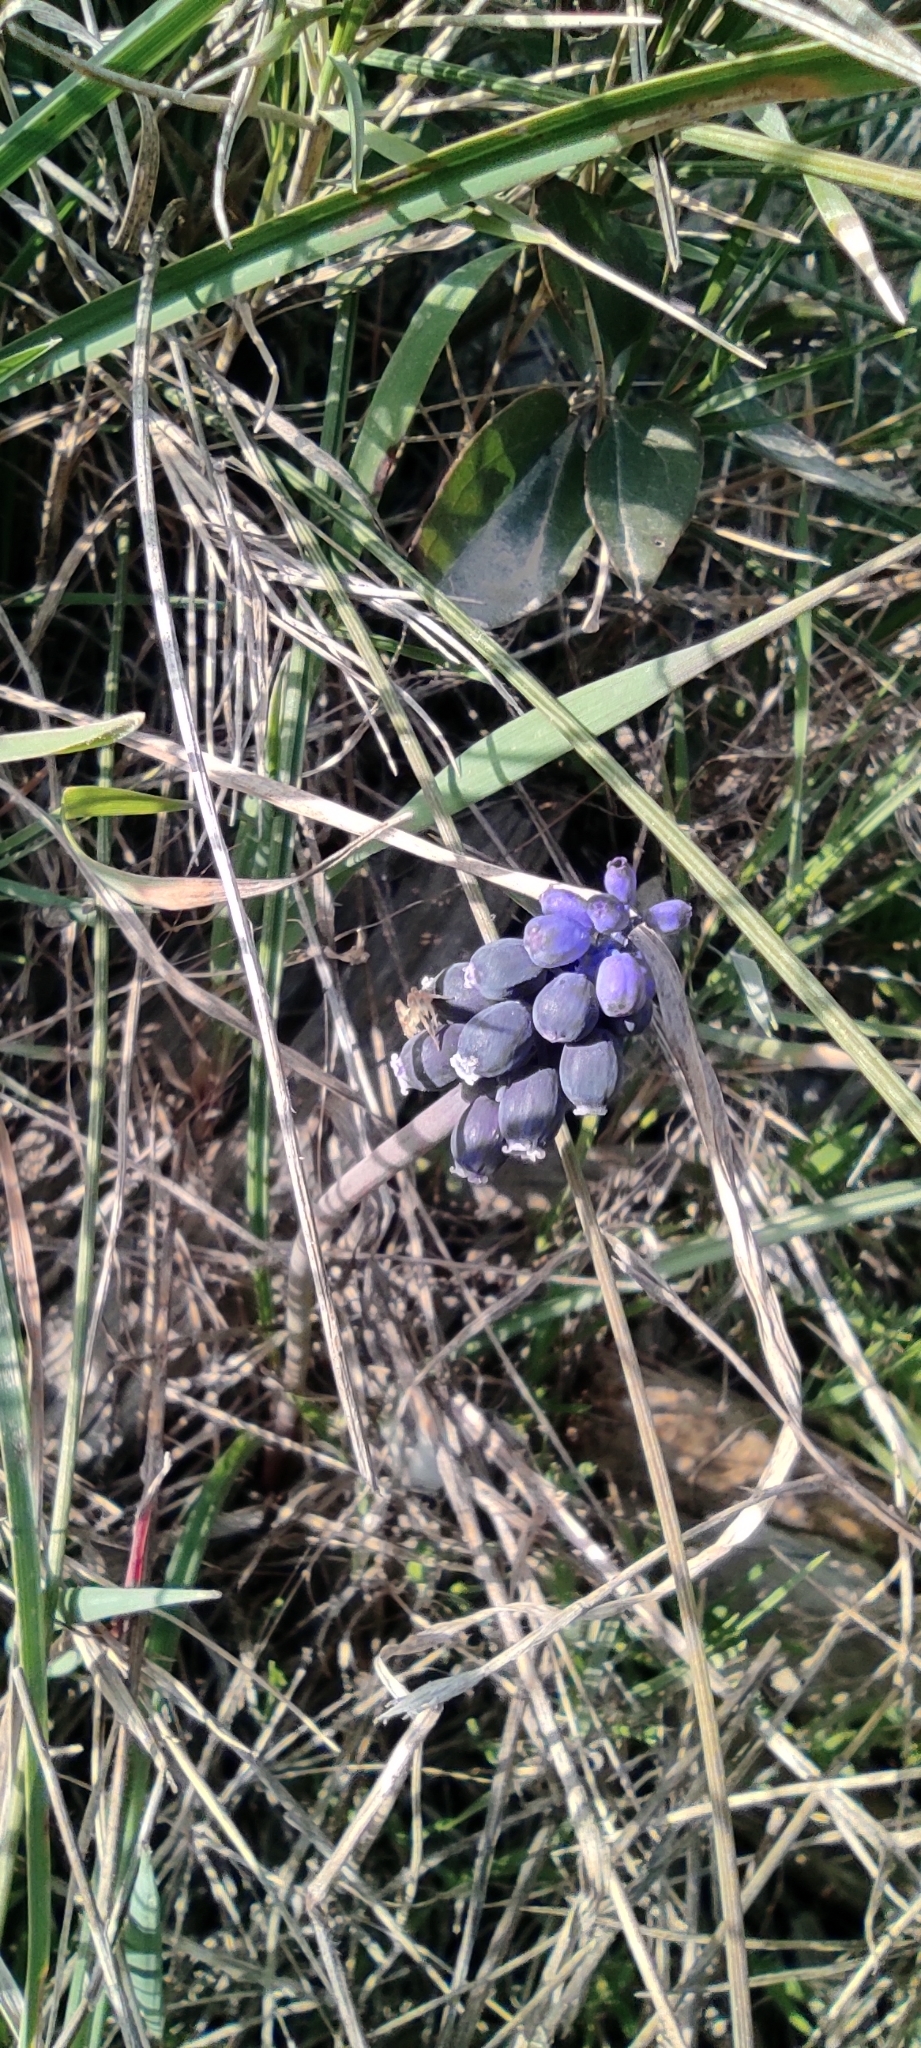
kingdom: Plantae
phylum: Tracheophyta
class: Liliopsida
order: Asparagales
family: Asparagaceae
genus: Muscari
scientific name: Muscari neglectum
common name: Grape-hyacinth
